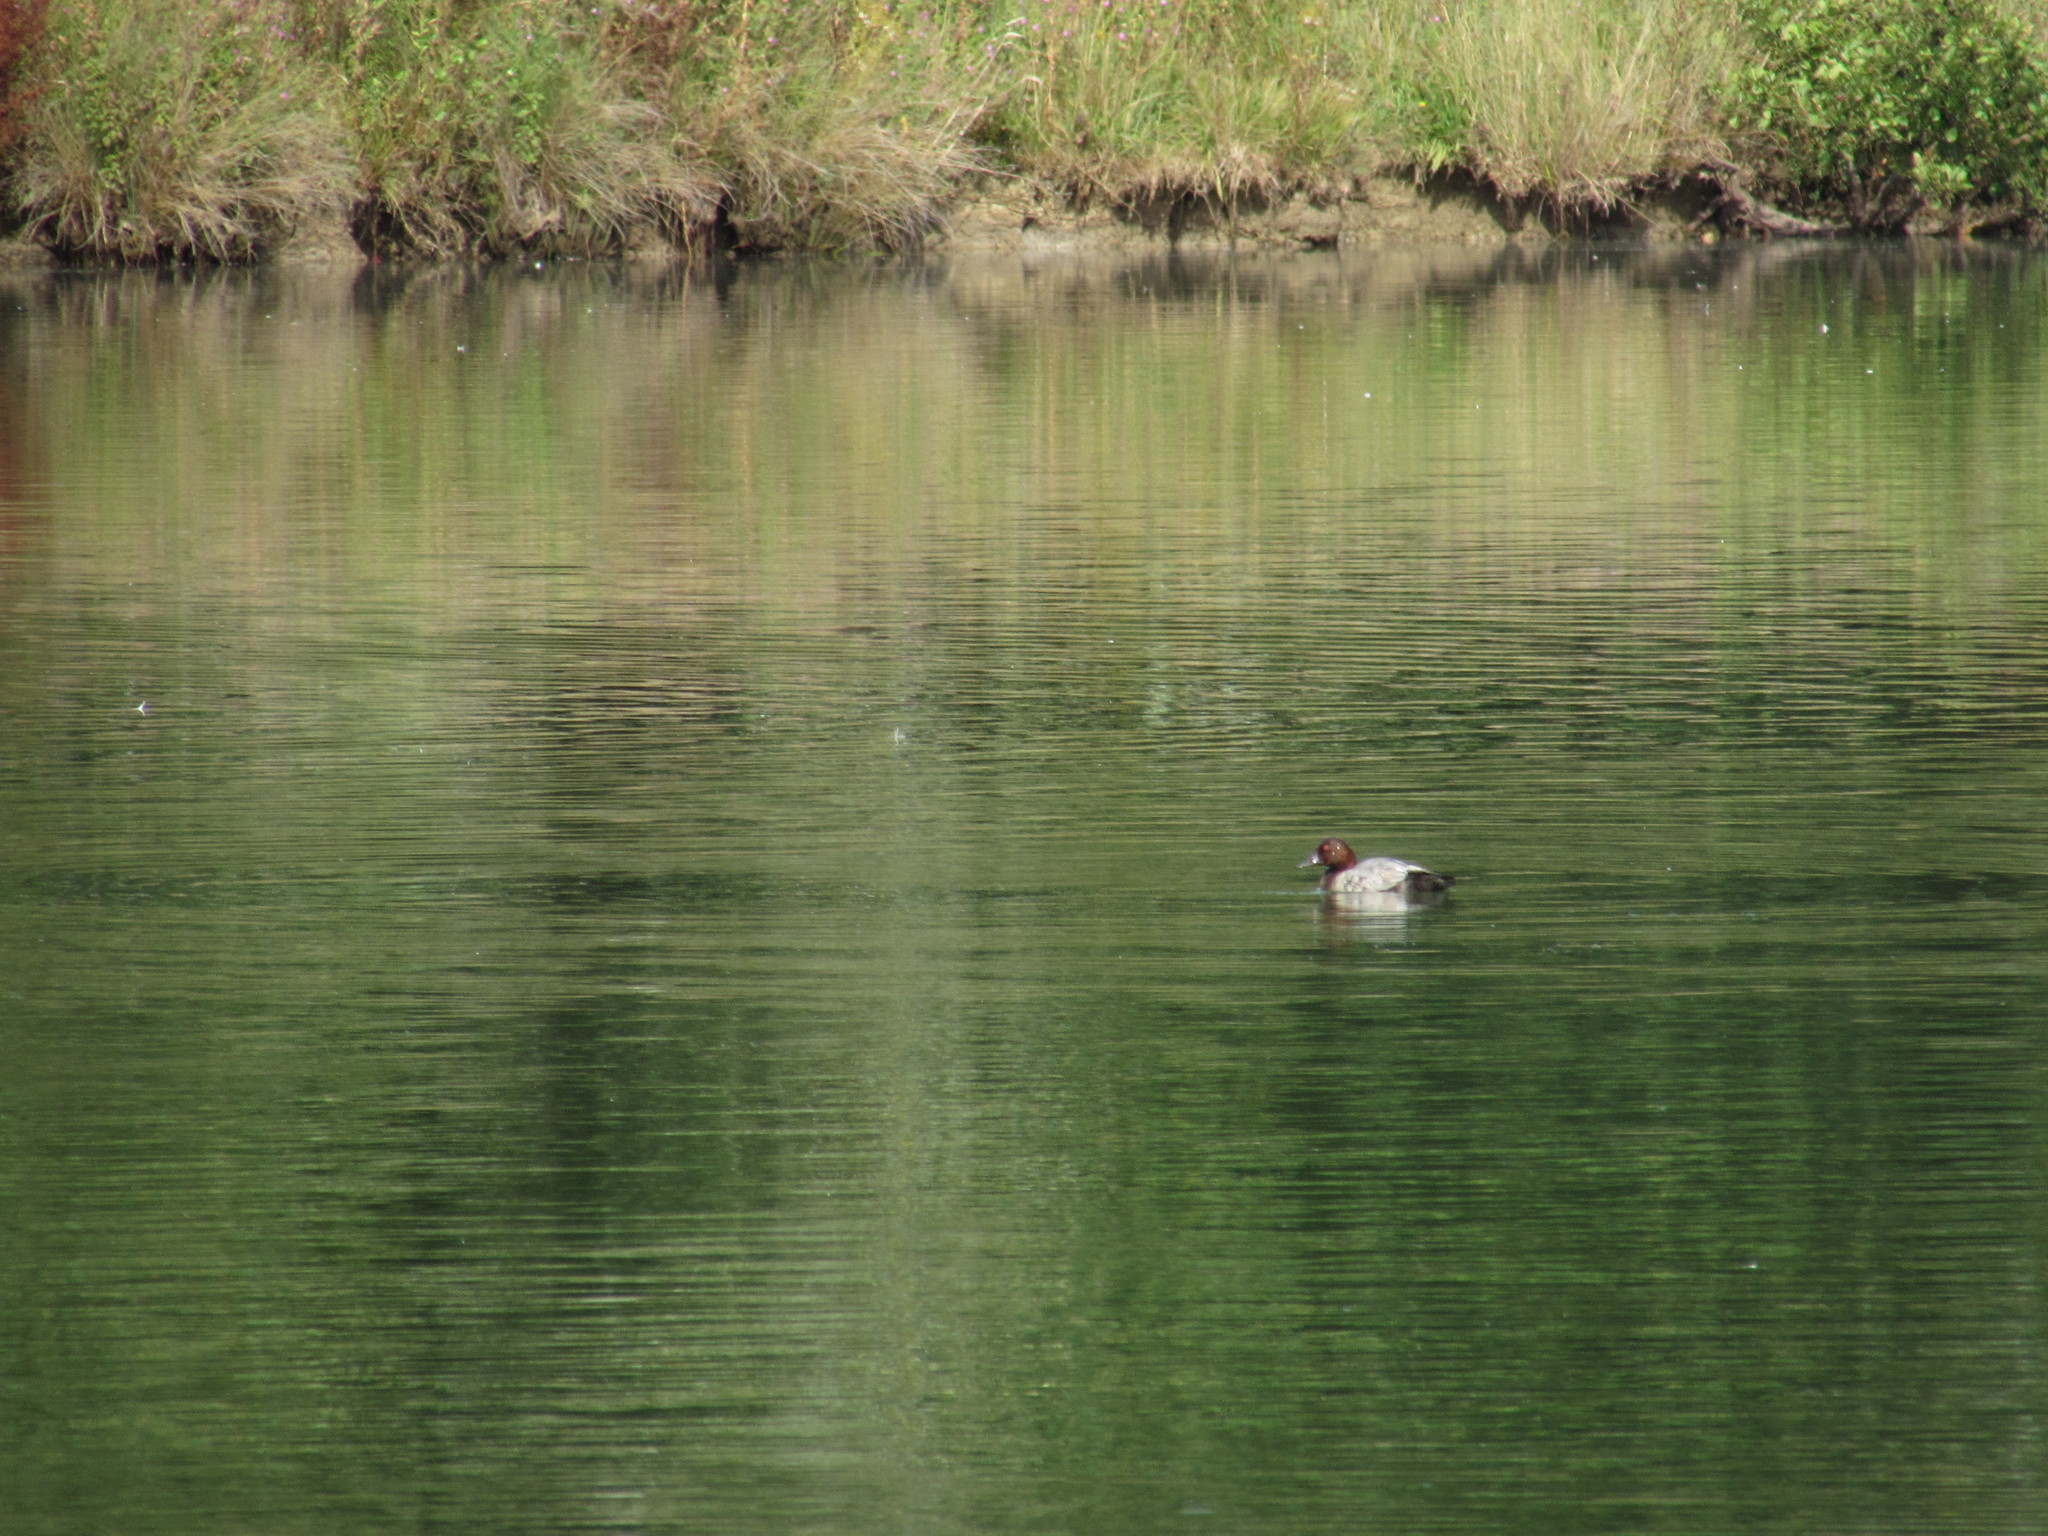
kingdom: Animalia
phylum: Chordata
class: Aves
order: Anseriformes
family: Anatidae
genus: Aythya
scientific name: Aythya ferina
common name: Common pochard
